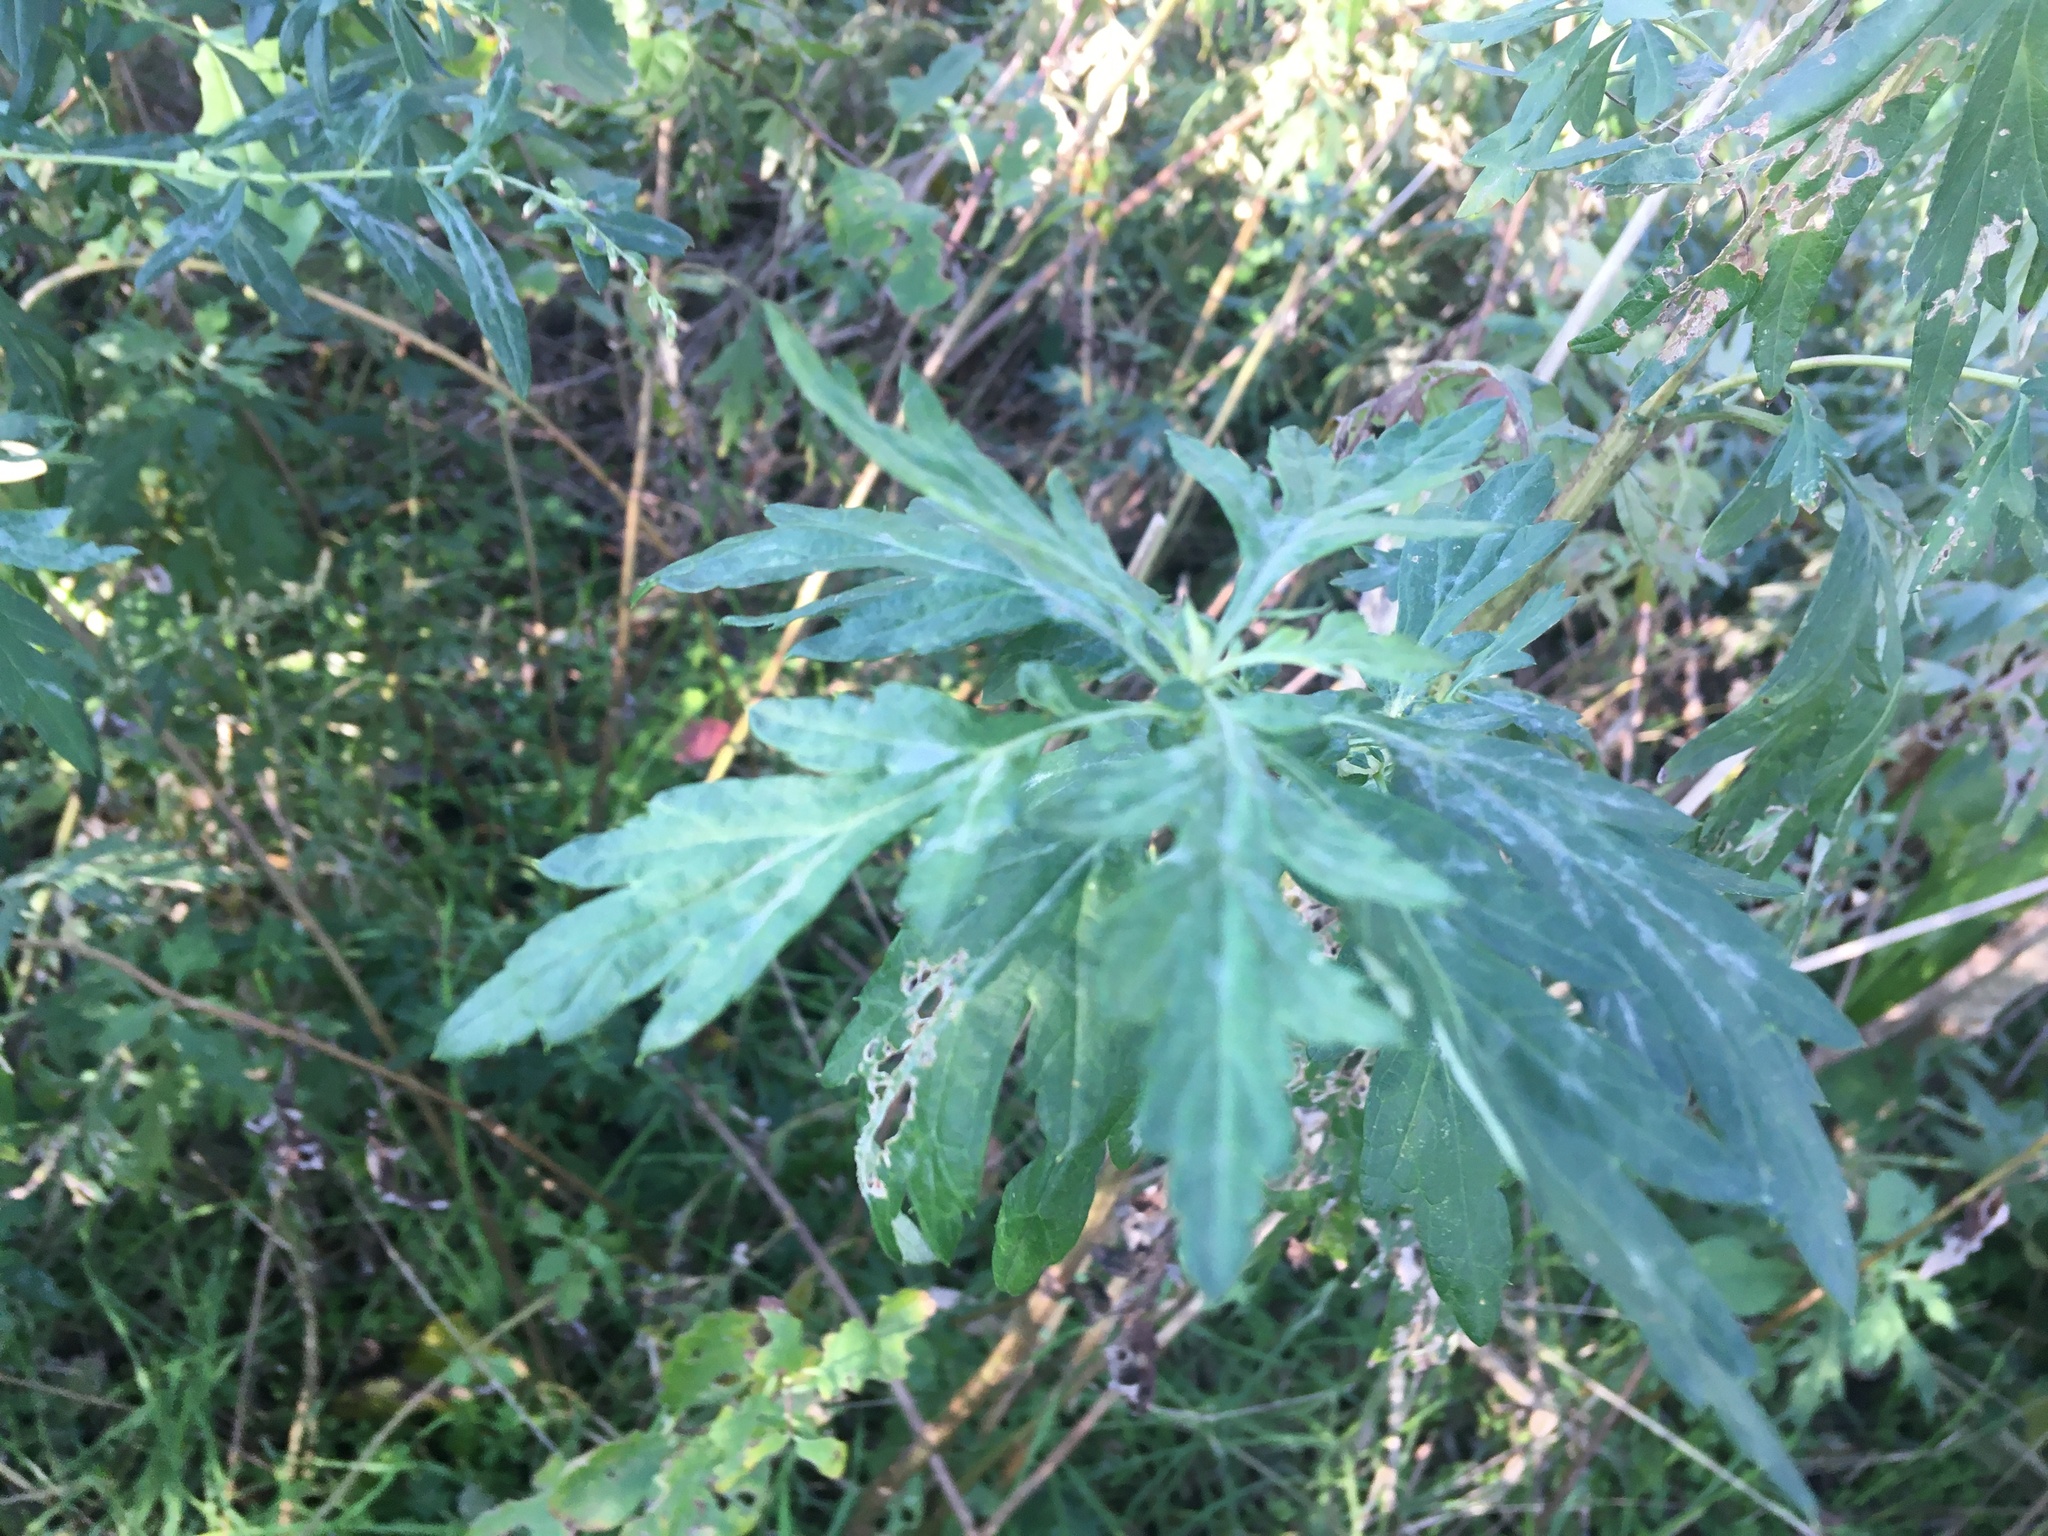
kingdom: Plantae
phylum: Tracheophyta
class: Magnoliopsida
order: Asterales
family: Asteraceae
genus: Artemisia
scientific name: Artemisia vulgaris
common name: Mugwort
